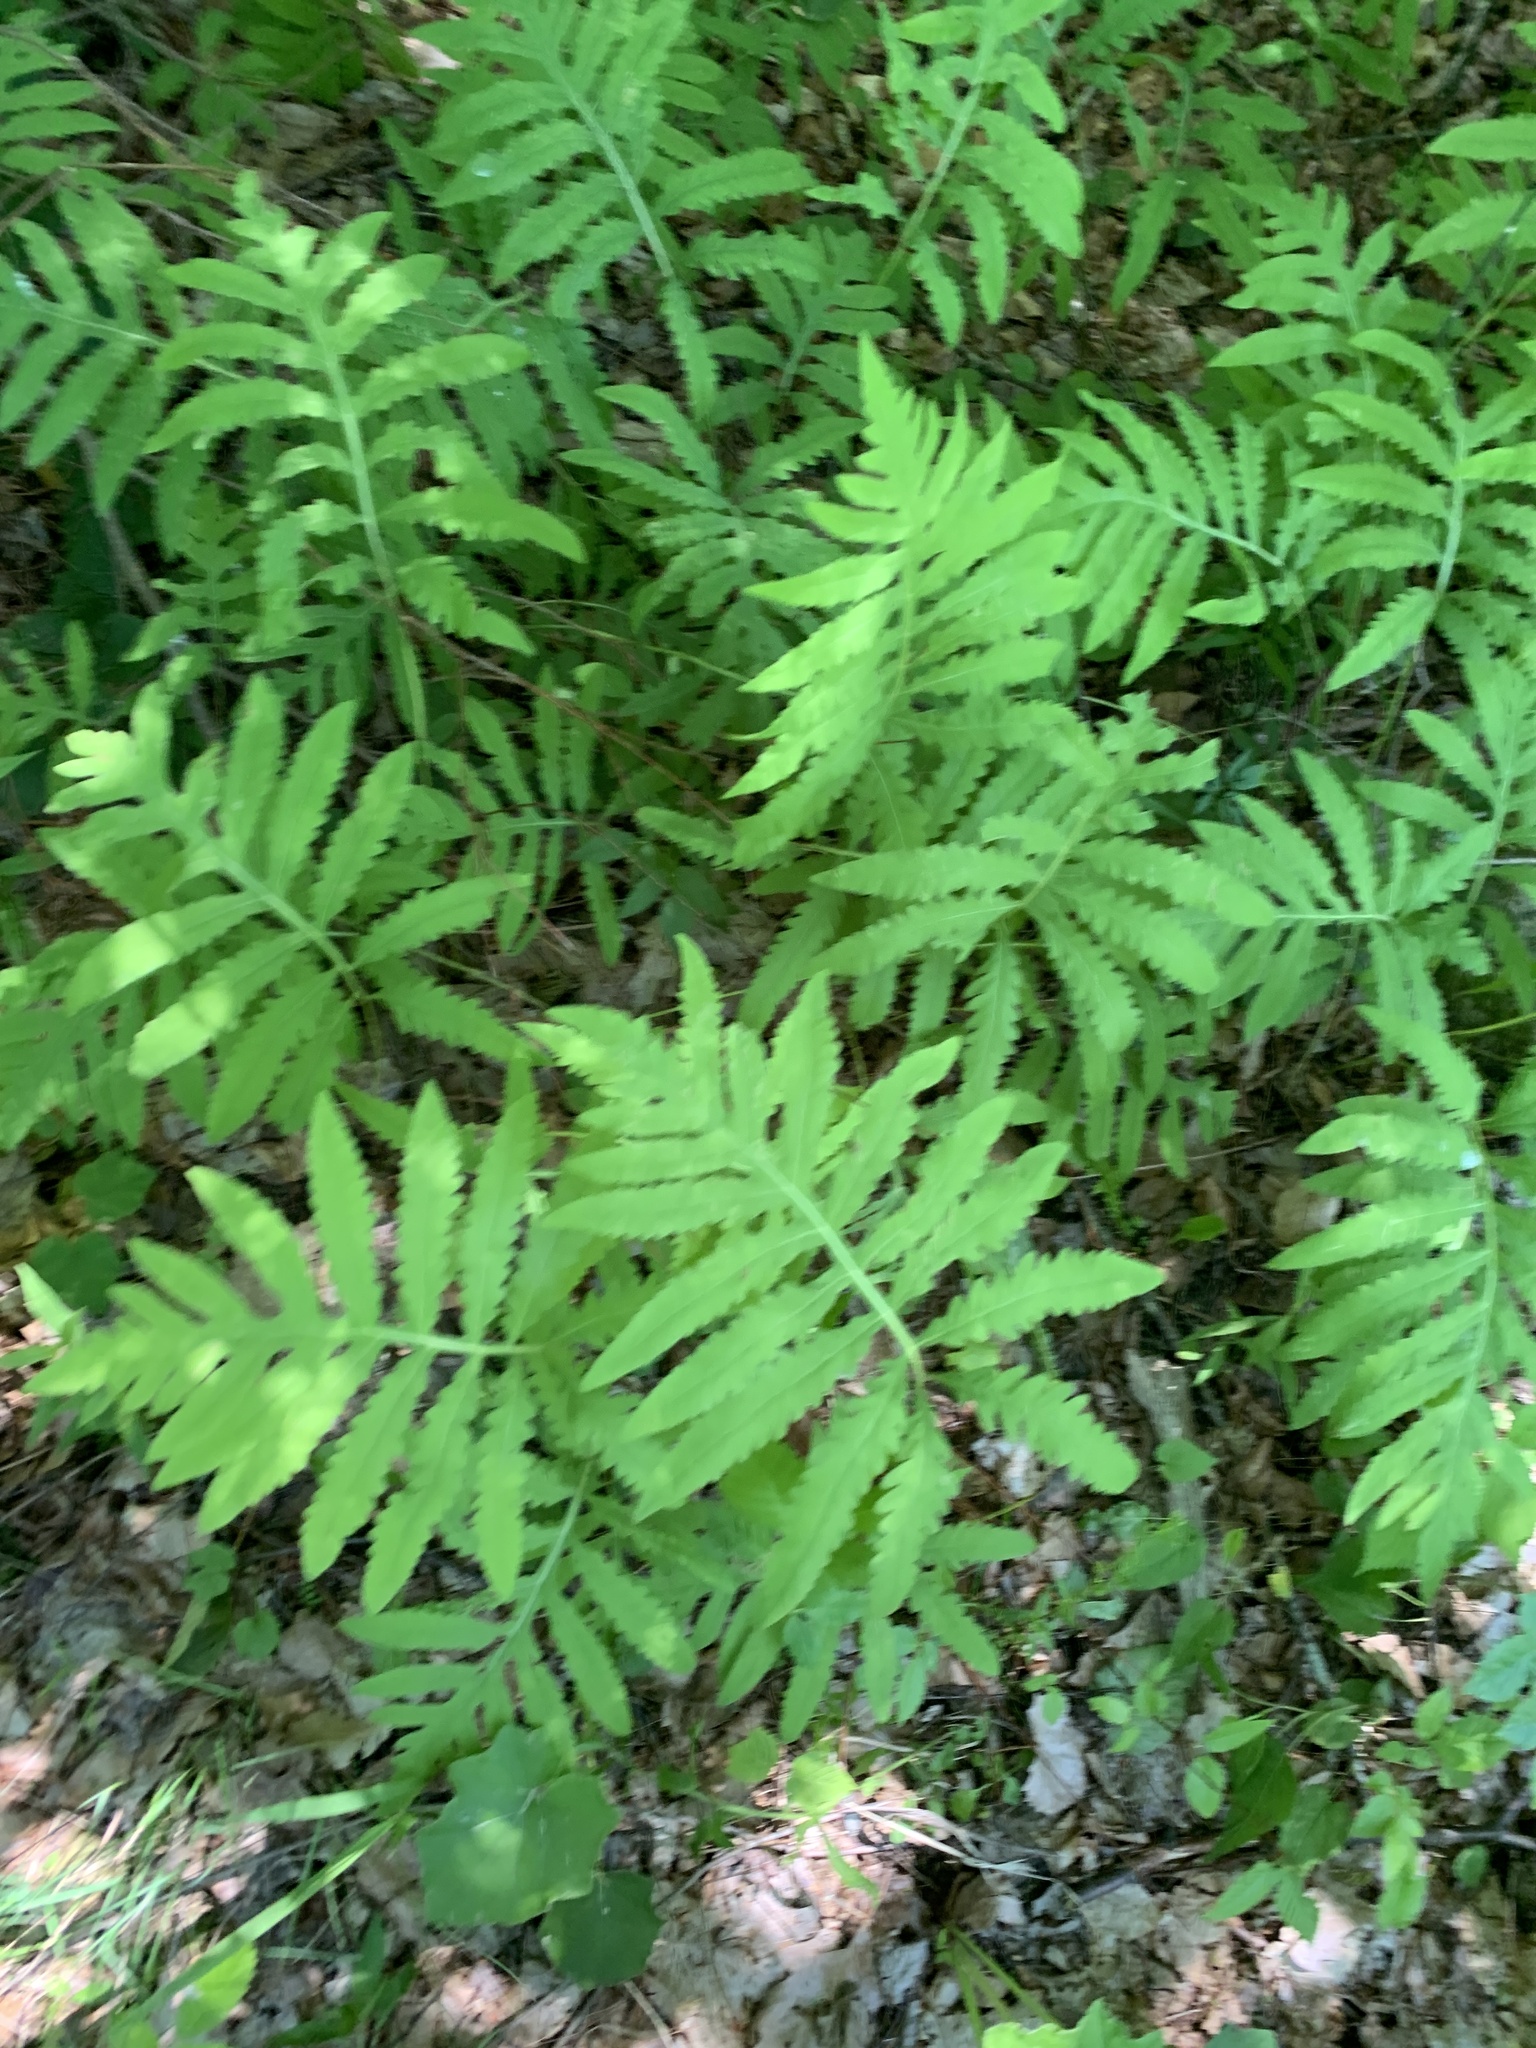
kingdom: Plantae
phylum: Tracheophyta
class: Polypodiopsida
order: Polypodiales
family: Onocleaceae
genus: Onoclea
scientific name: Onoclea sensibilis
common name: Sensitive fern
